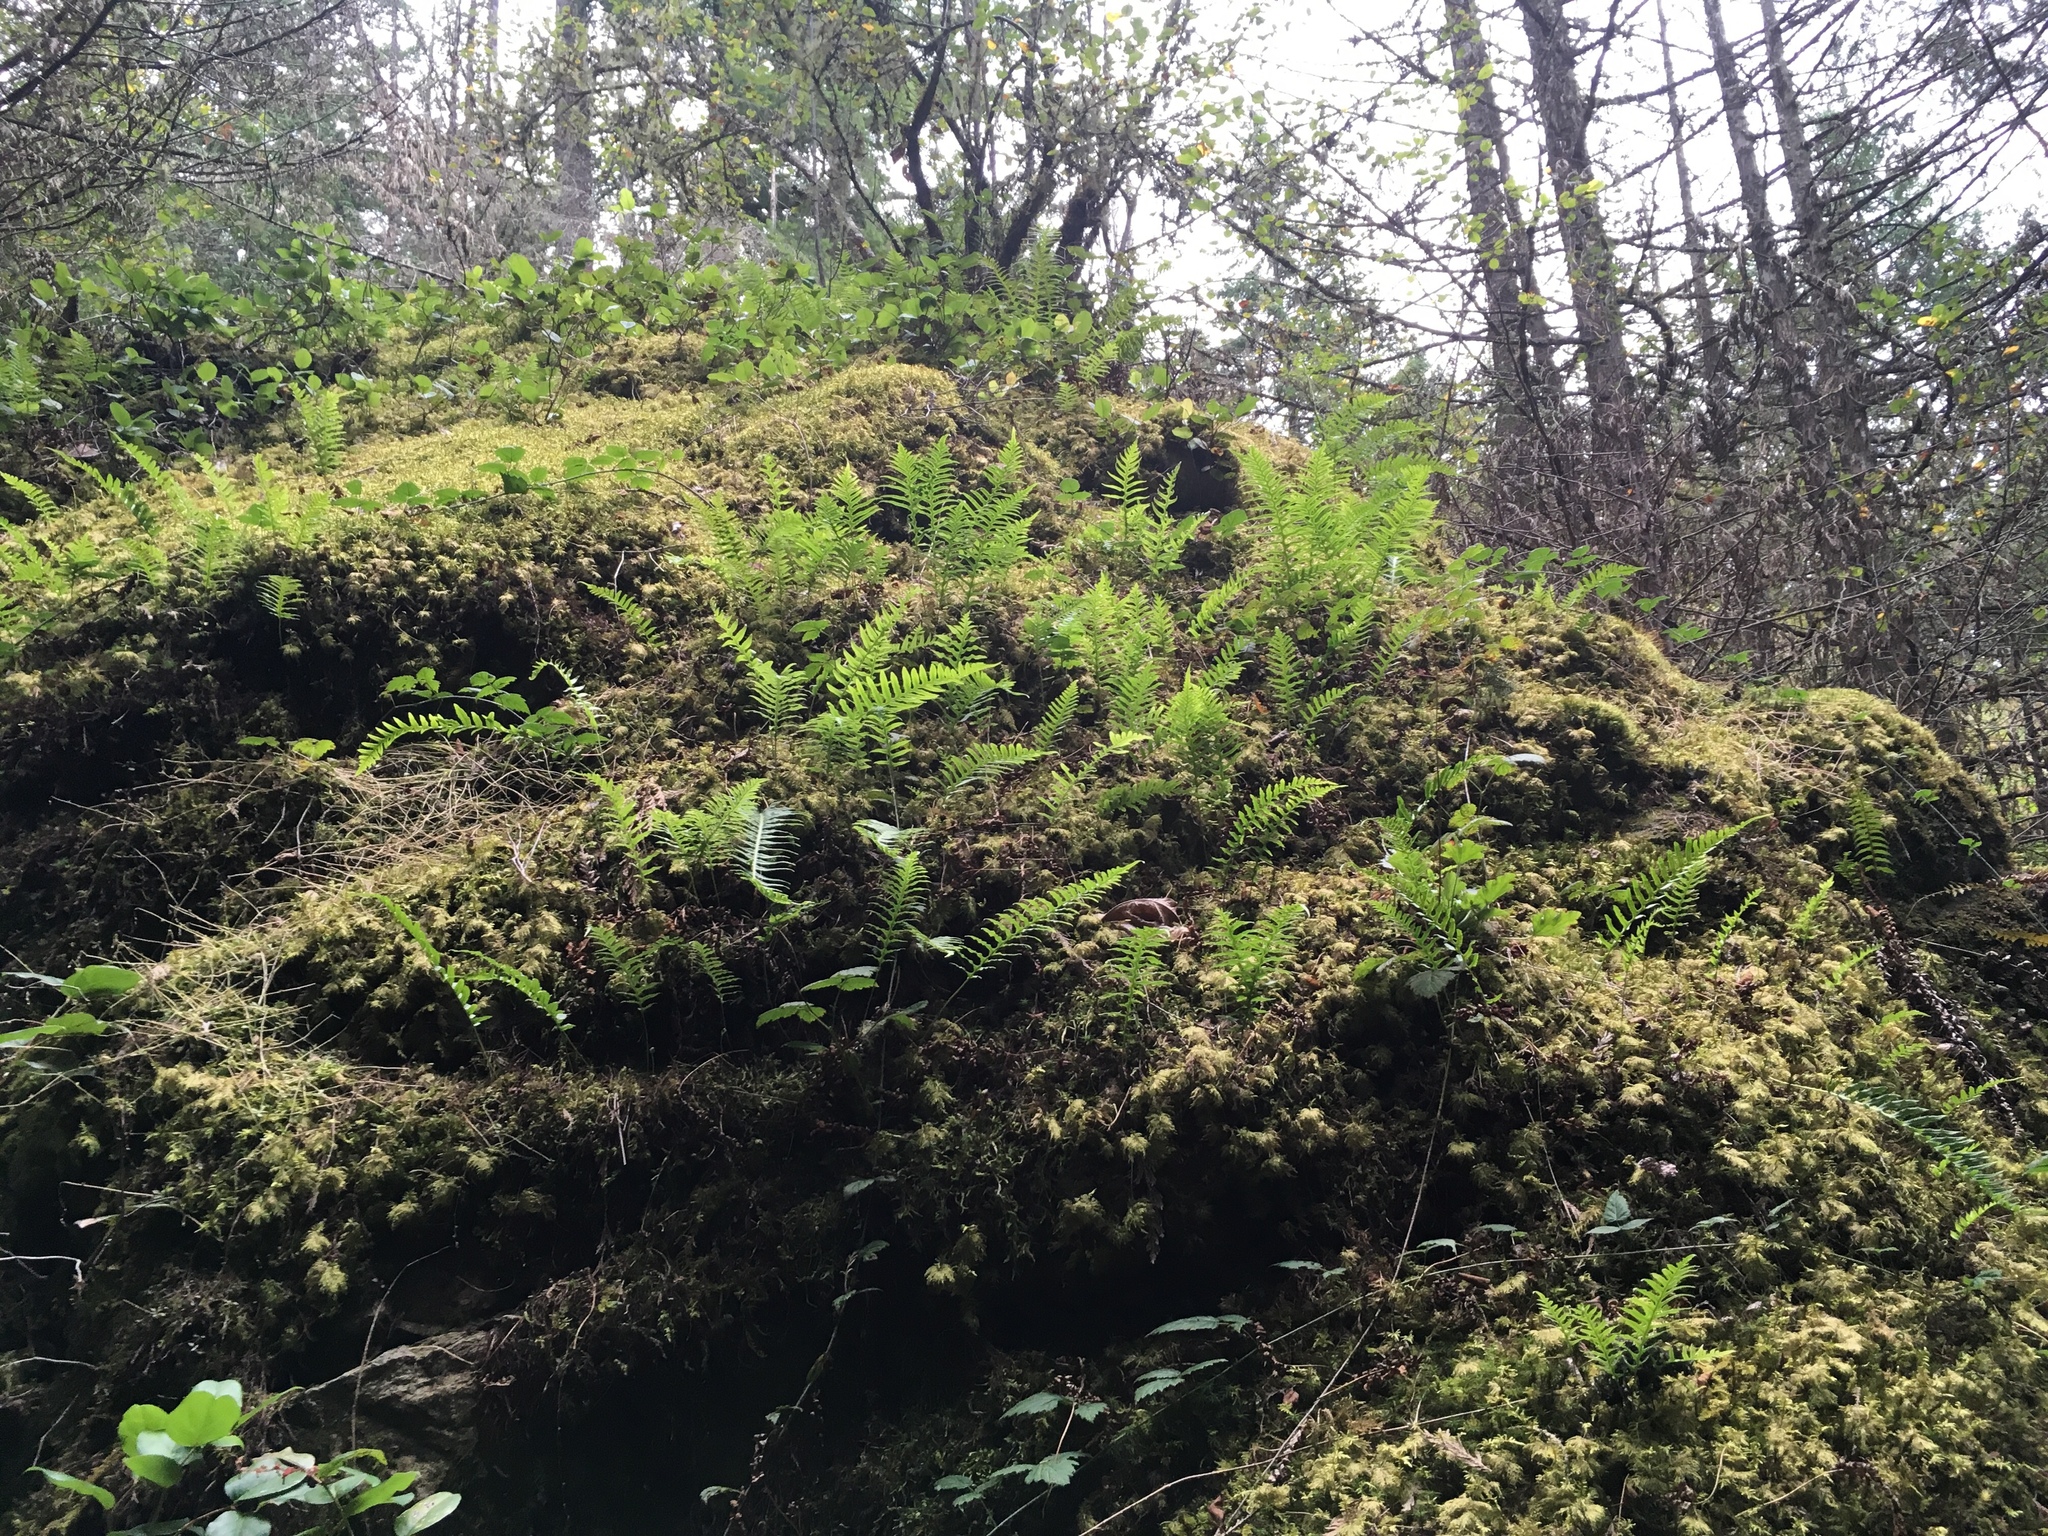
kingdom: Plantae
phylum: Tracheophyta
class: Polypodiopsida
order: Polypodiales
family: Polypodiaceae
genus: Polypodium
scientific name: Polypodium glycyrrhiza
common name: Licorice fern
